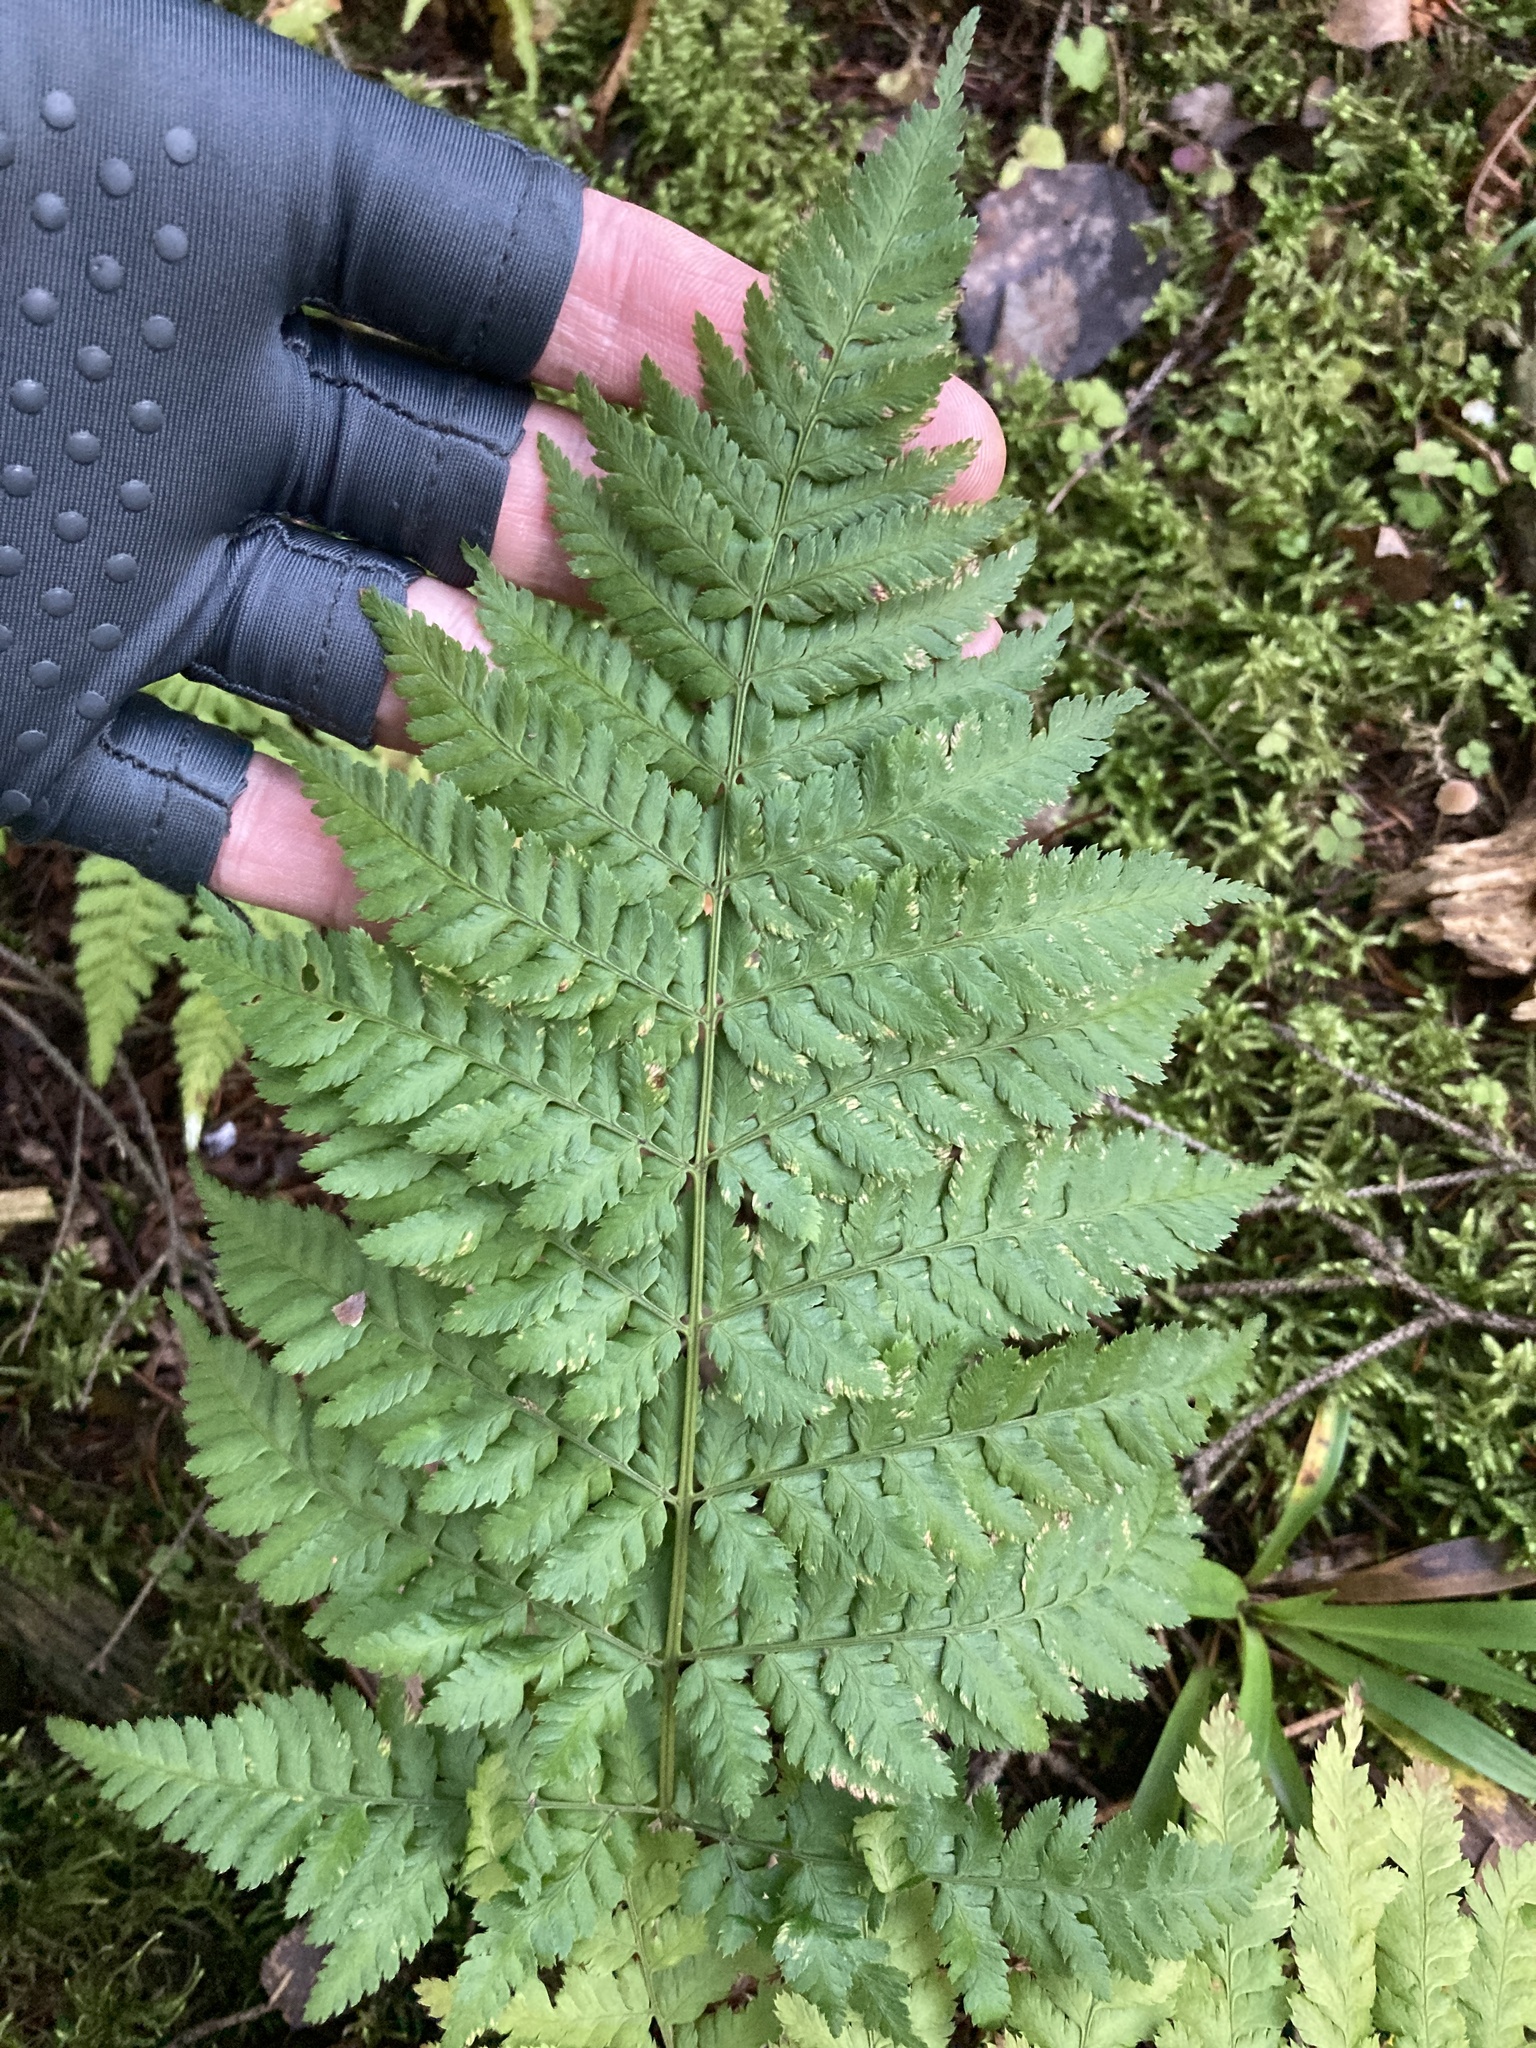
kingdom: Plantae
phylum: Tracheophyta
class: Polypodiopsida
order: Polypodiales
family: Dryopteridaceae
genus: Dryopteris
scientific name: Dryopteris expansa
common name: Northern buckler fern
